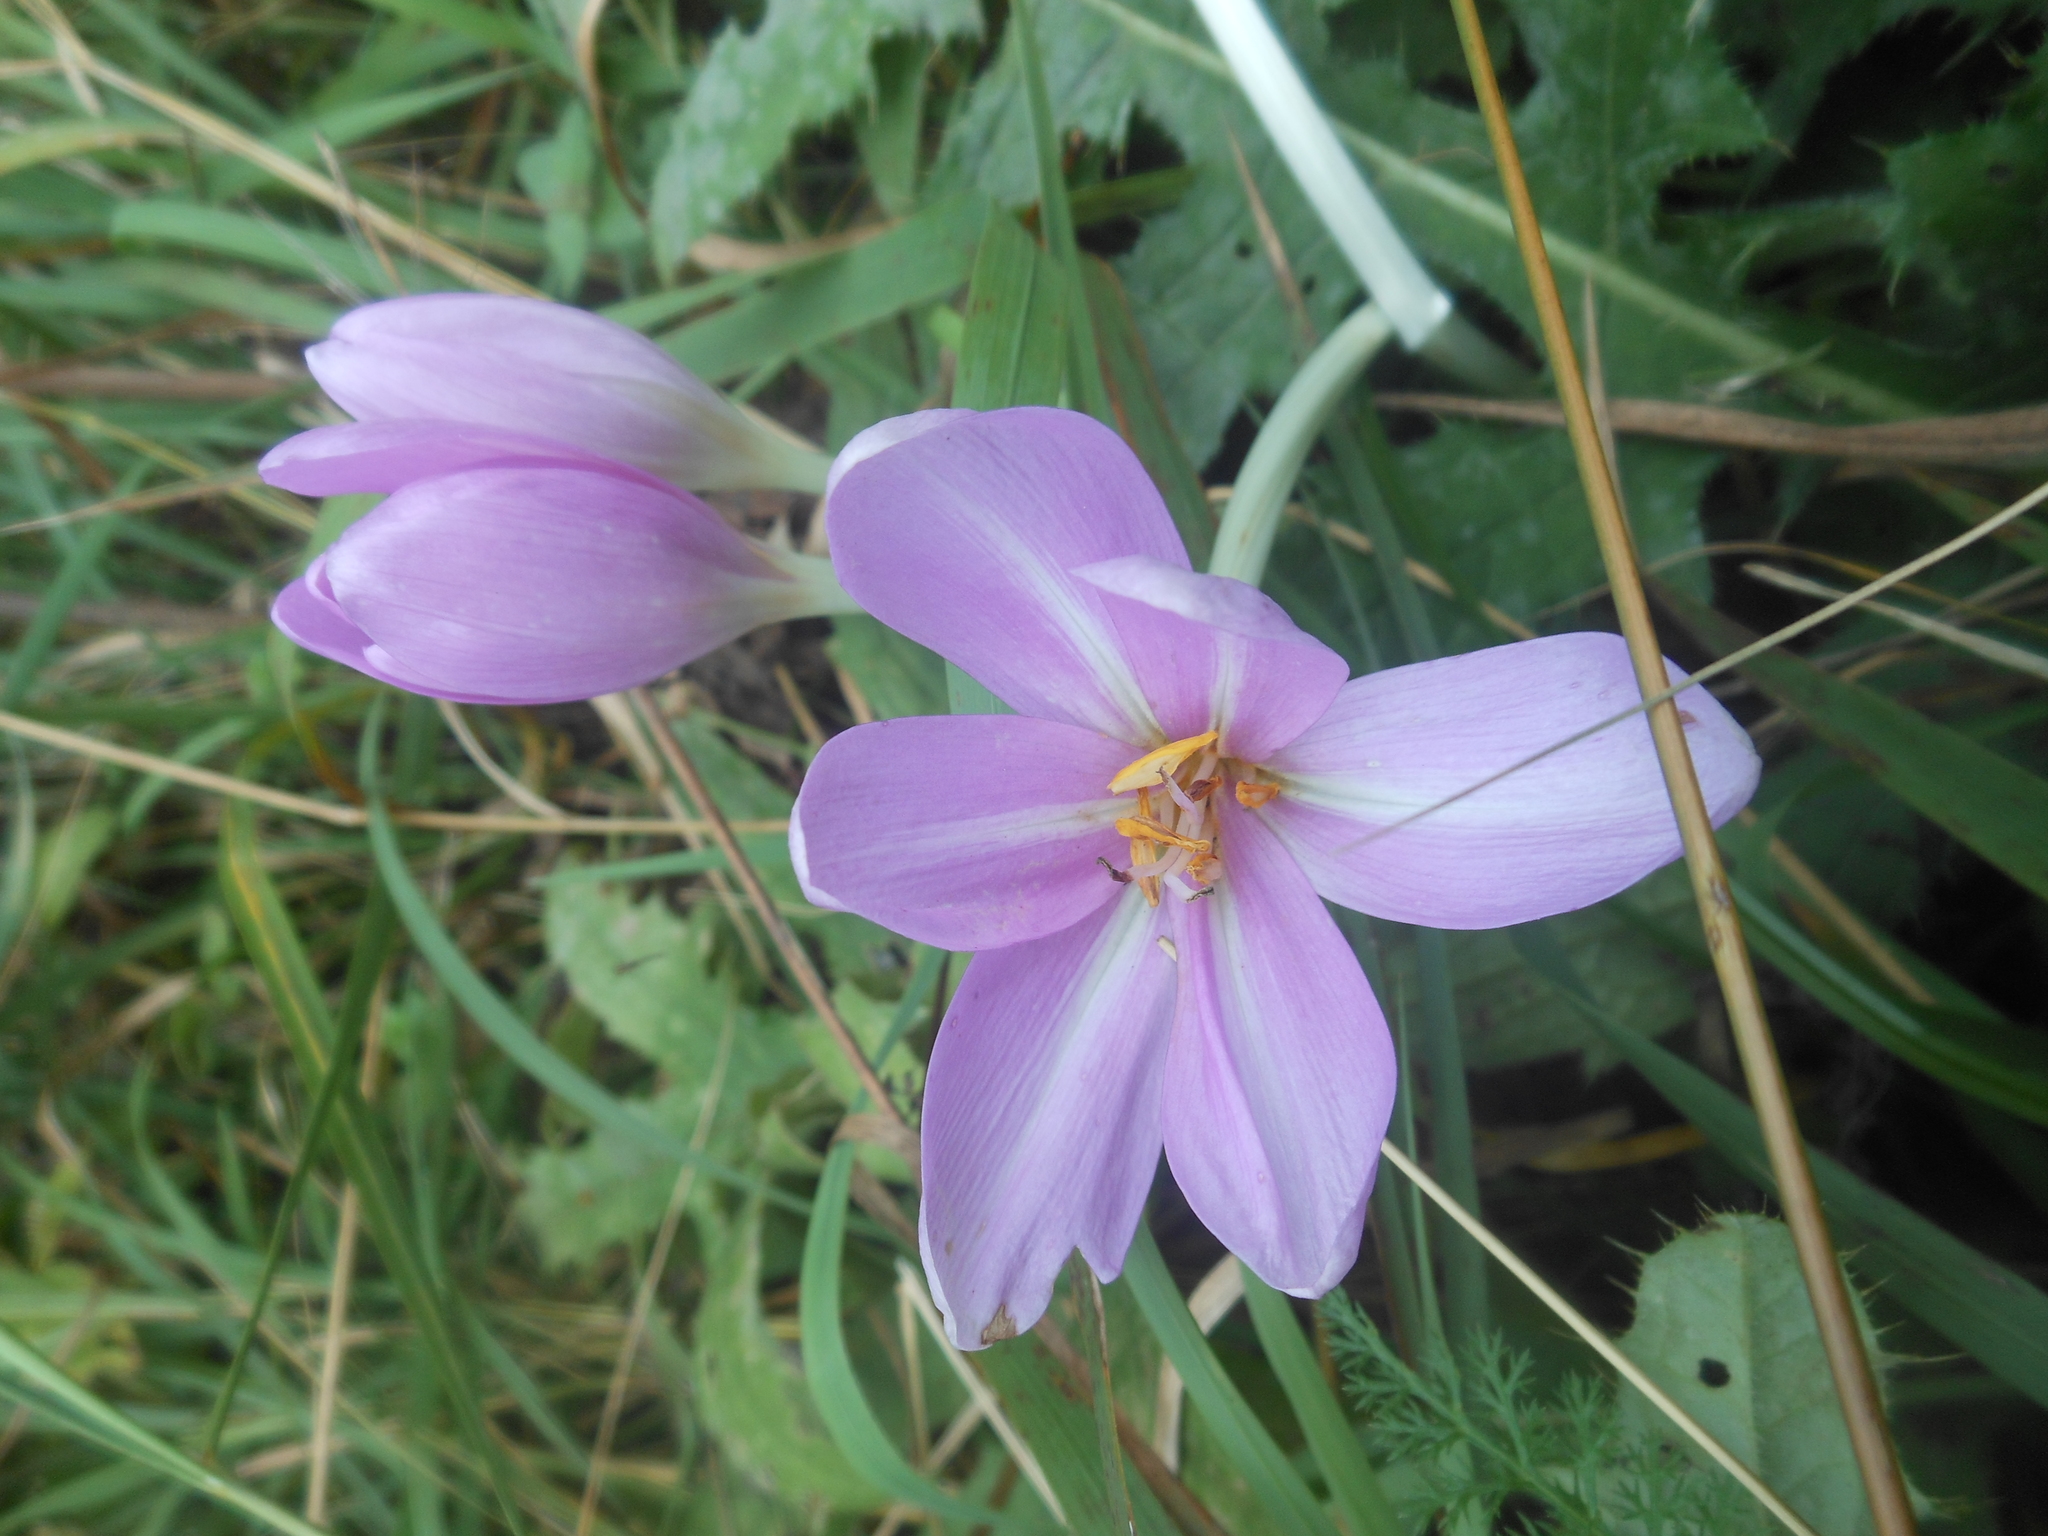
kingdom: Plantae
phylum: Tracheophyta
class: Liliopsida
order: Liliales
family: Colchicaceae
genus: Colchicum
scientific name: Colchicum autumnale
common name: Autumn crocus
